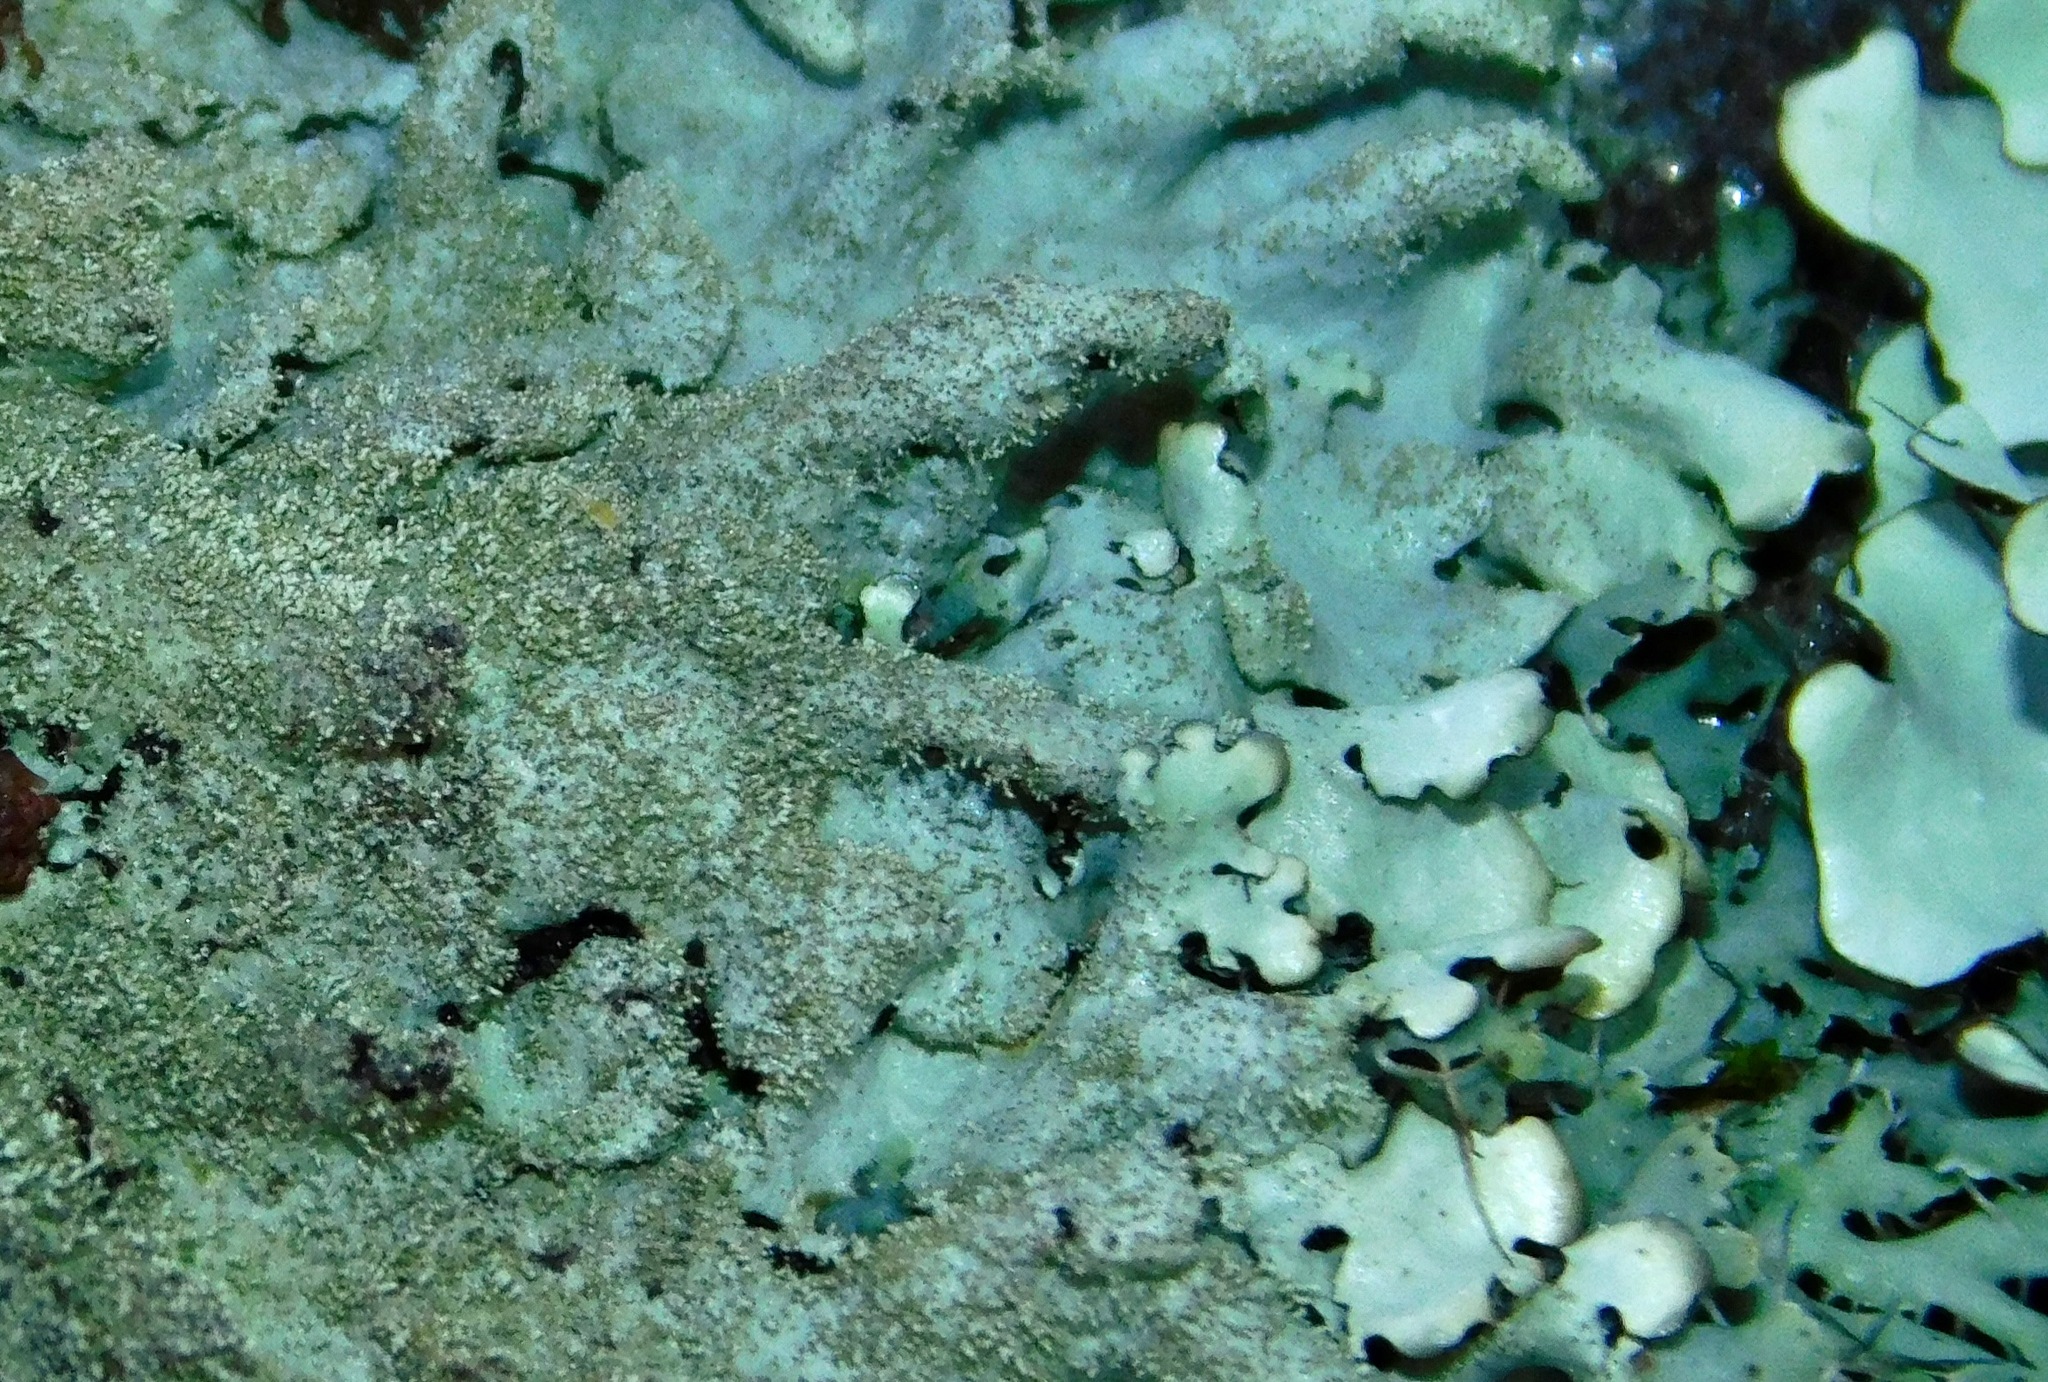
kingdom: Fungi
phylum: Ascomycota
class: Lecanoromycetes
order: Lecanorales
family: Parmeliaceae
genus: Myelochroa
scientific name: Myelochroa obsessa
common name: Rock axil-bristle lichen
